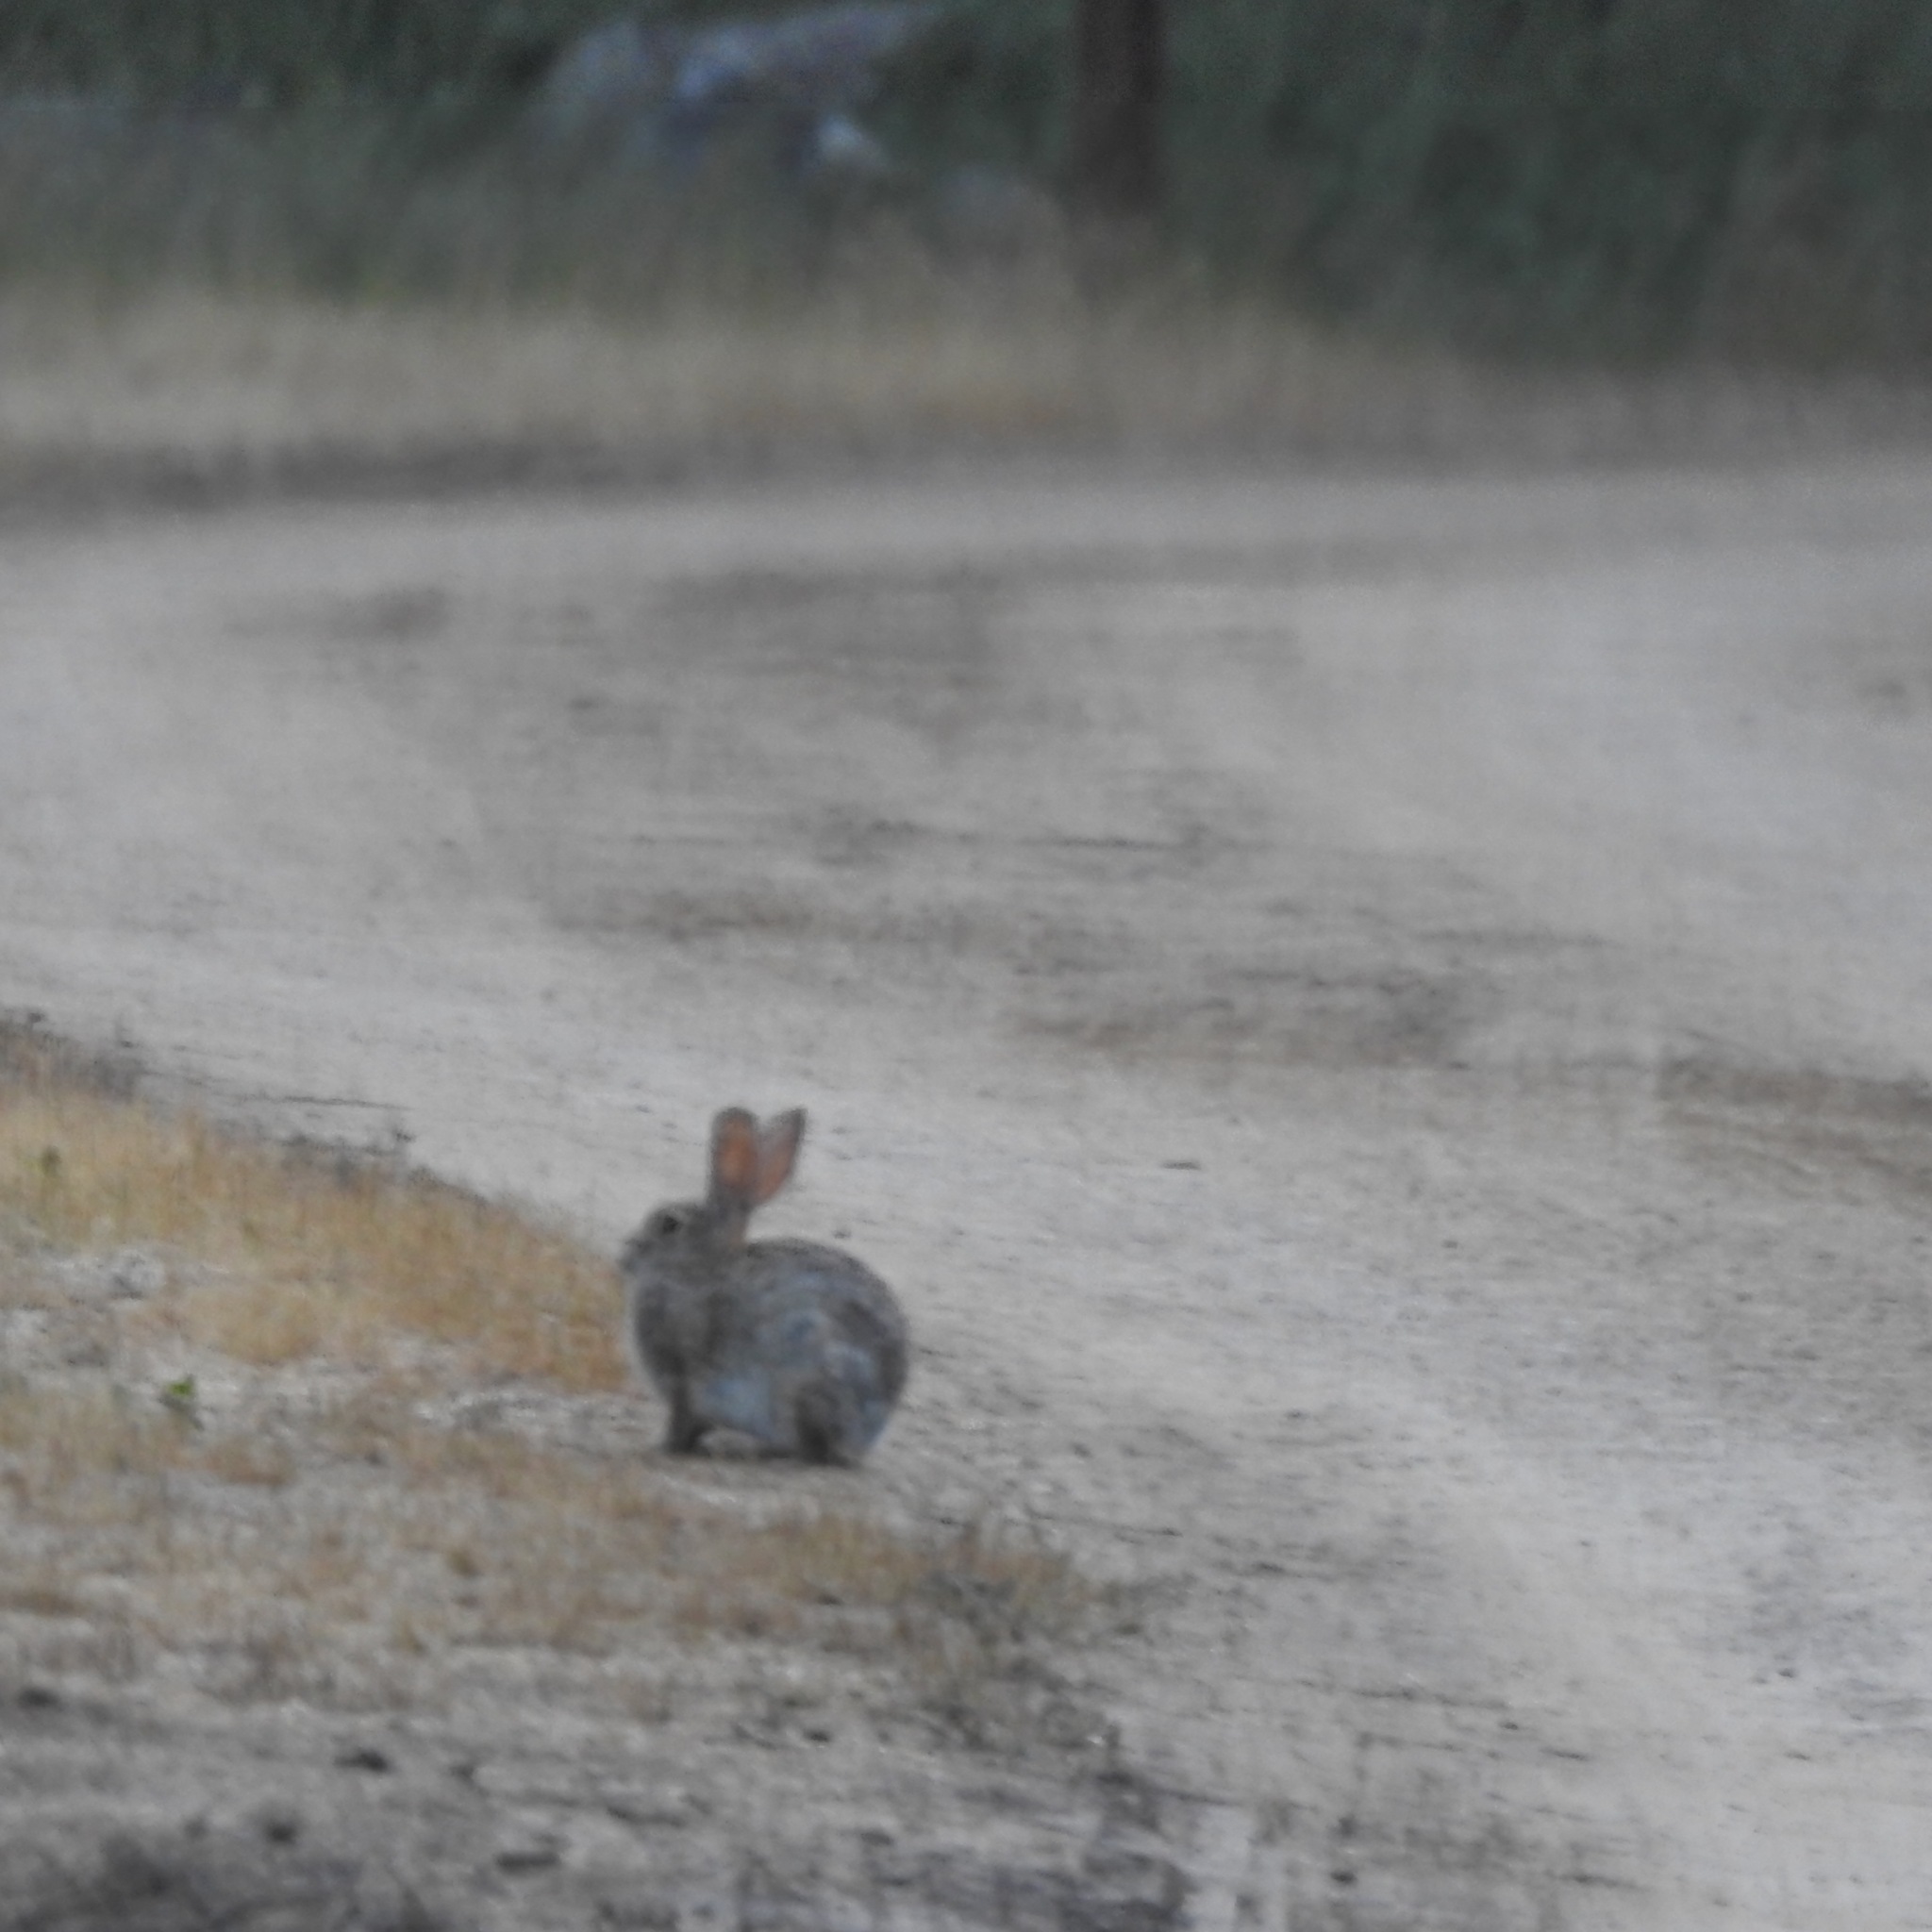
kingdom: Animalia
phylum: Chordata
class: Mammalia
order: Lagomorpha
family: Leporidae
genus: Sylvilagus
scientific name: Sylvilagus audubonii
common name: Desert cottontail
